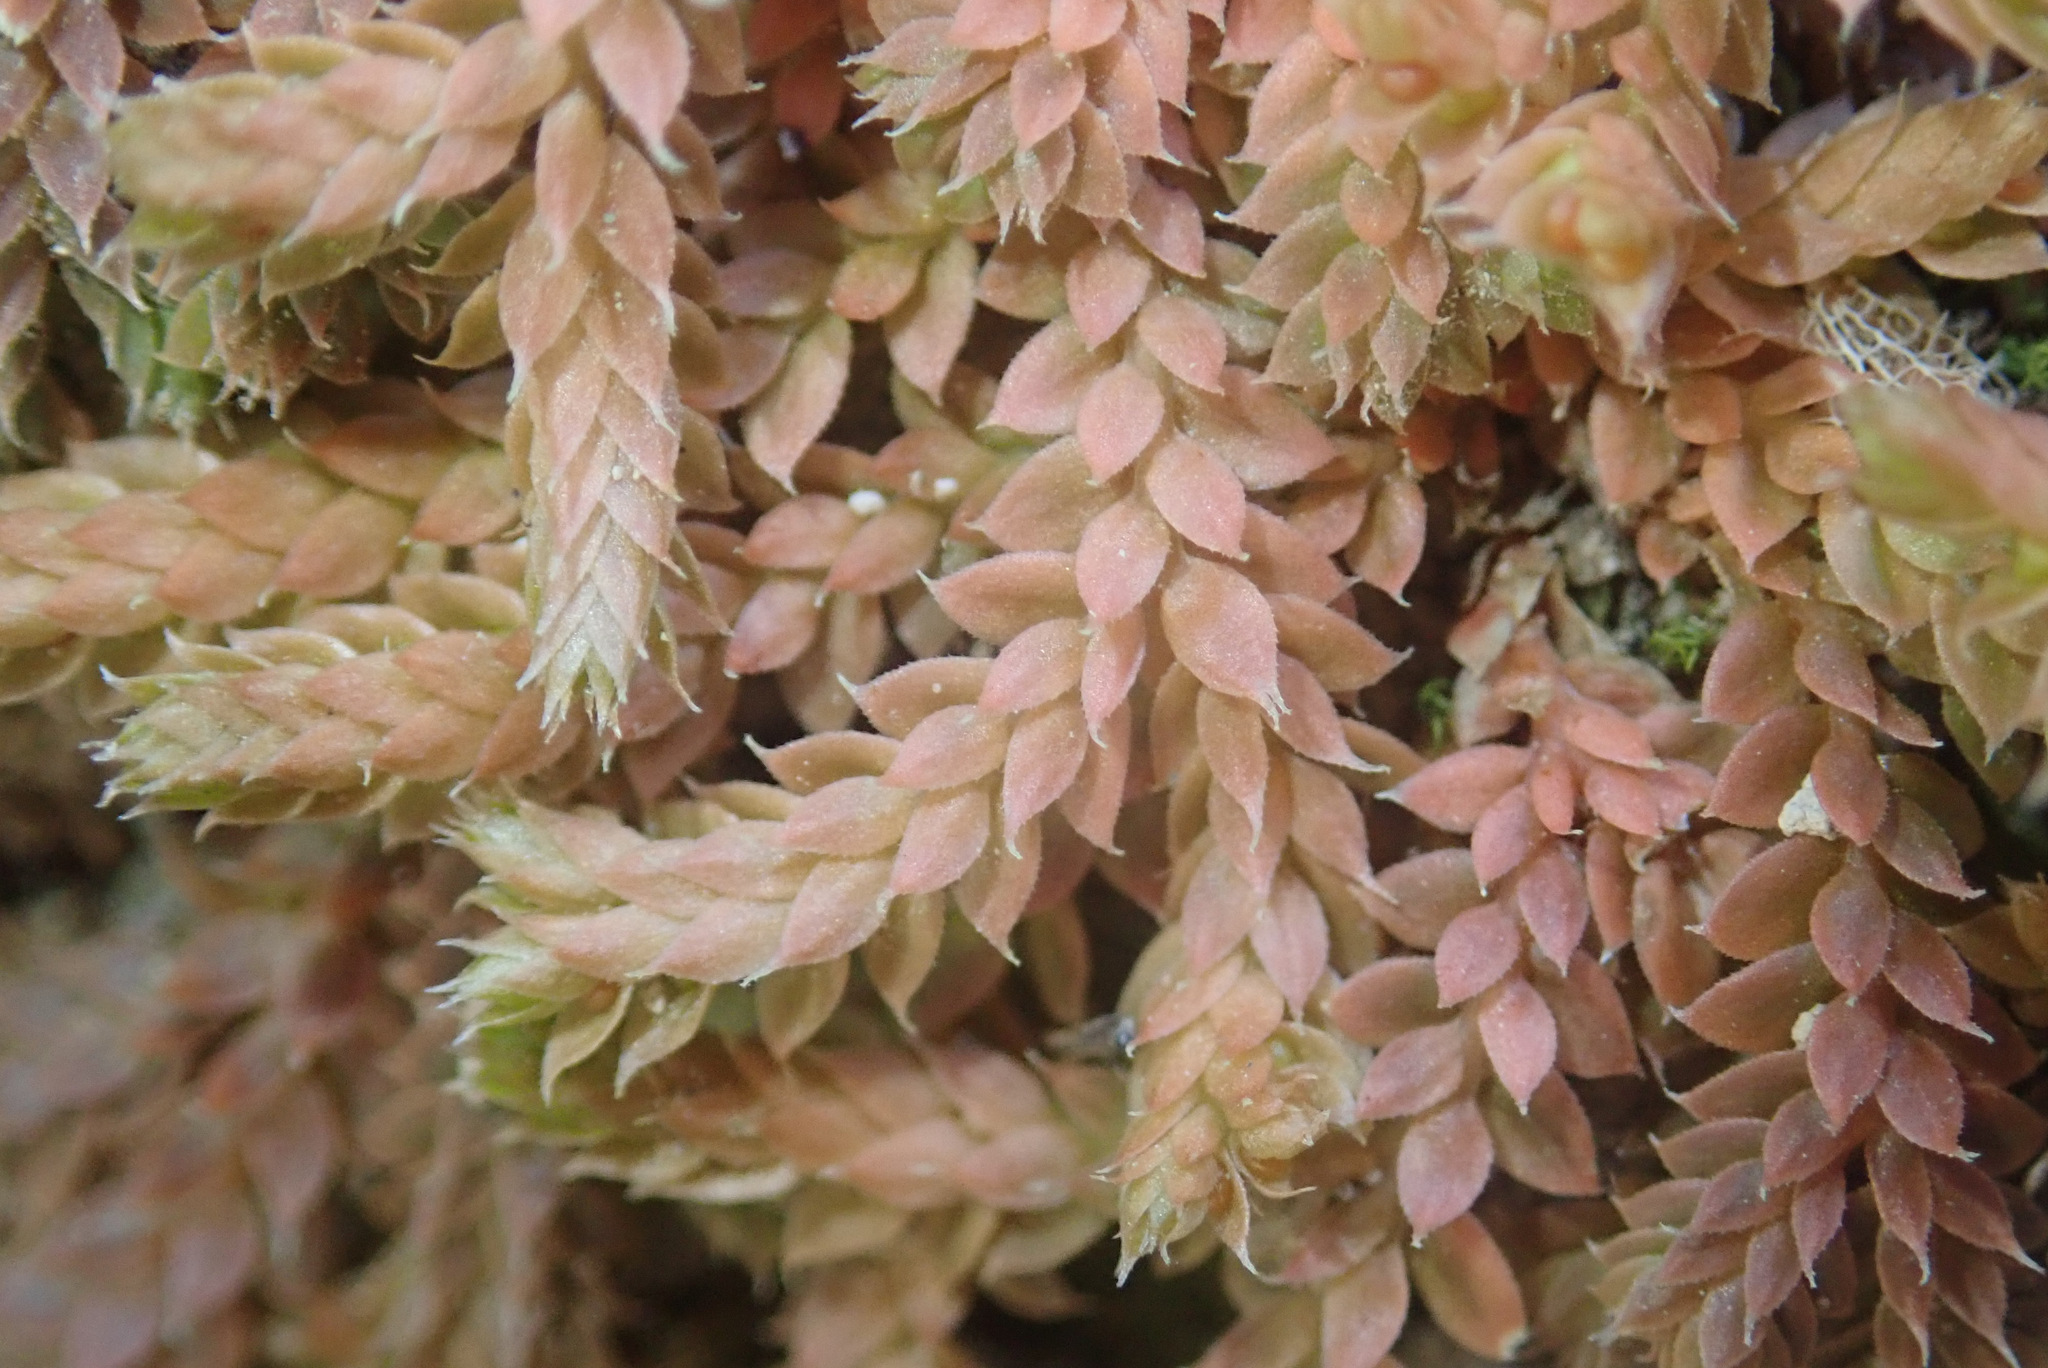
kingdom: Plantae
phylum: Tracheophyta
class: Lycopodiopsida
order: Selaginellales
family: Selaginellaceae
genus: Selaginella
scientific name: Selaginella denticulata
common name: Toothed-leaved clubmoss
